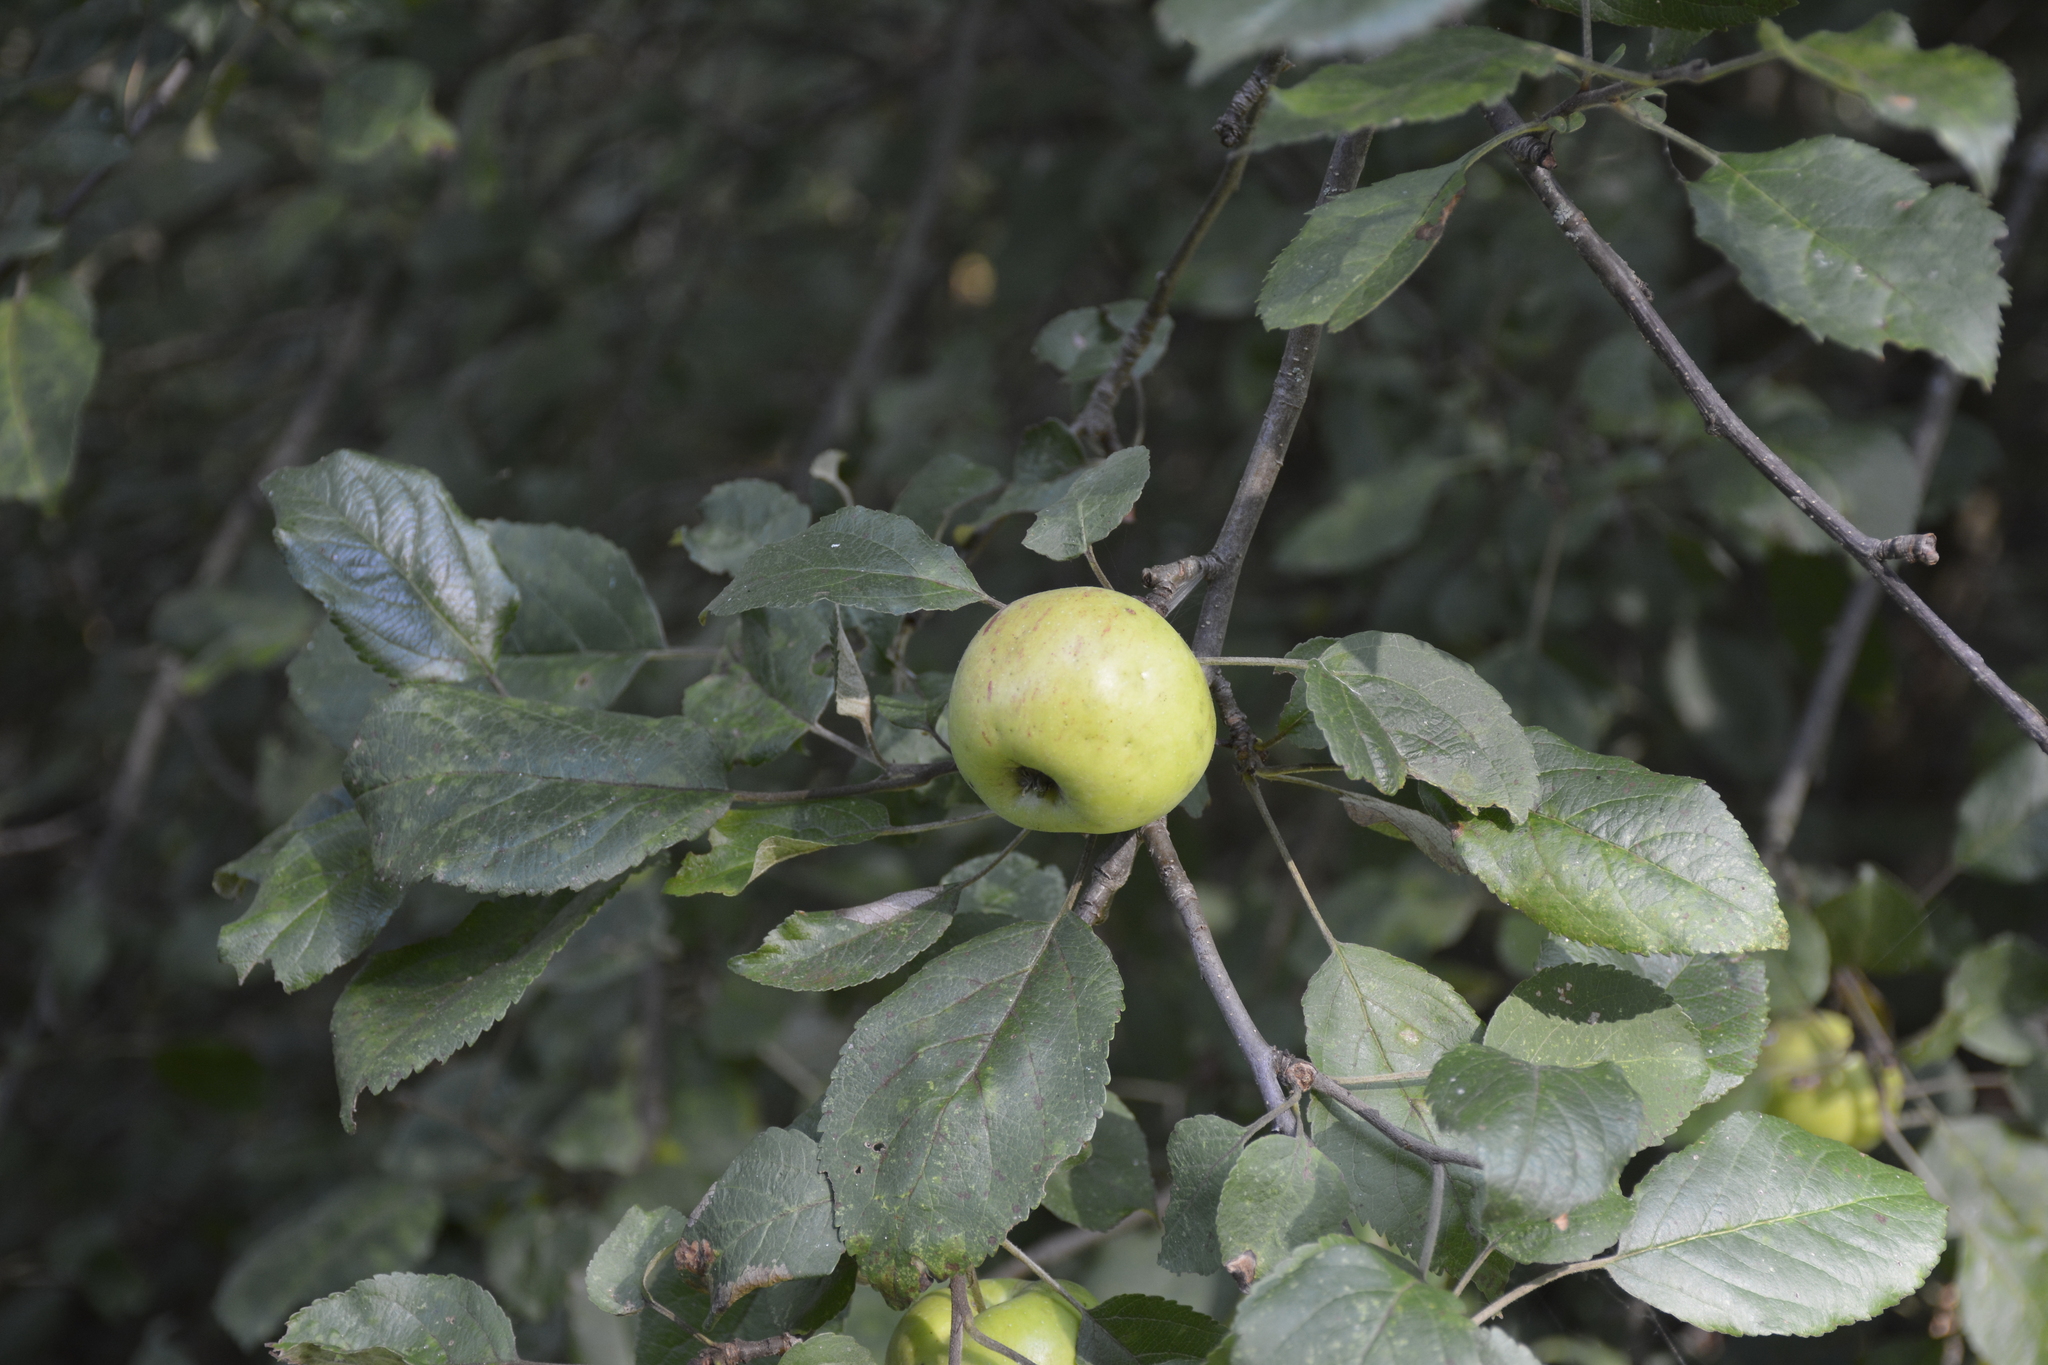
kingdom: Plantae
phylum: Tracheophyta
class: Magnoliopsida
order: Rosales
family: Rosaceae
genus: Malus
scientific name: Malus domestica
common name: Apple
